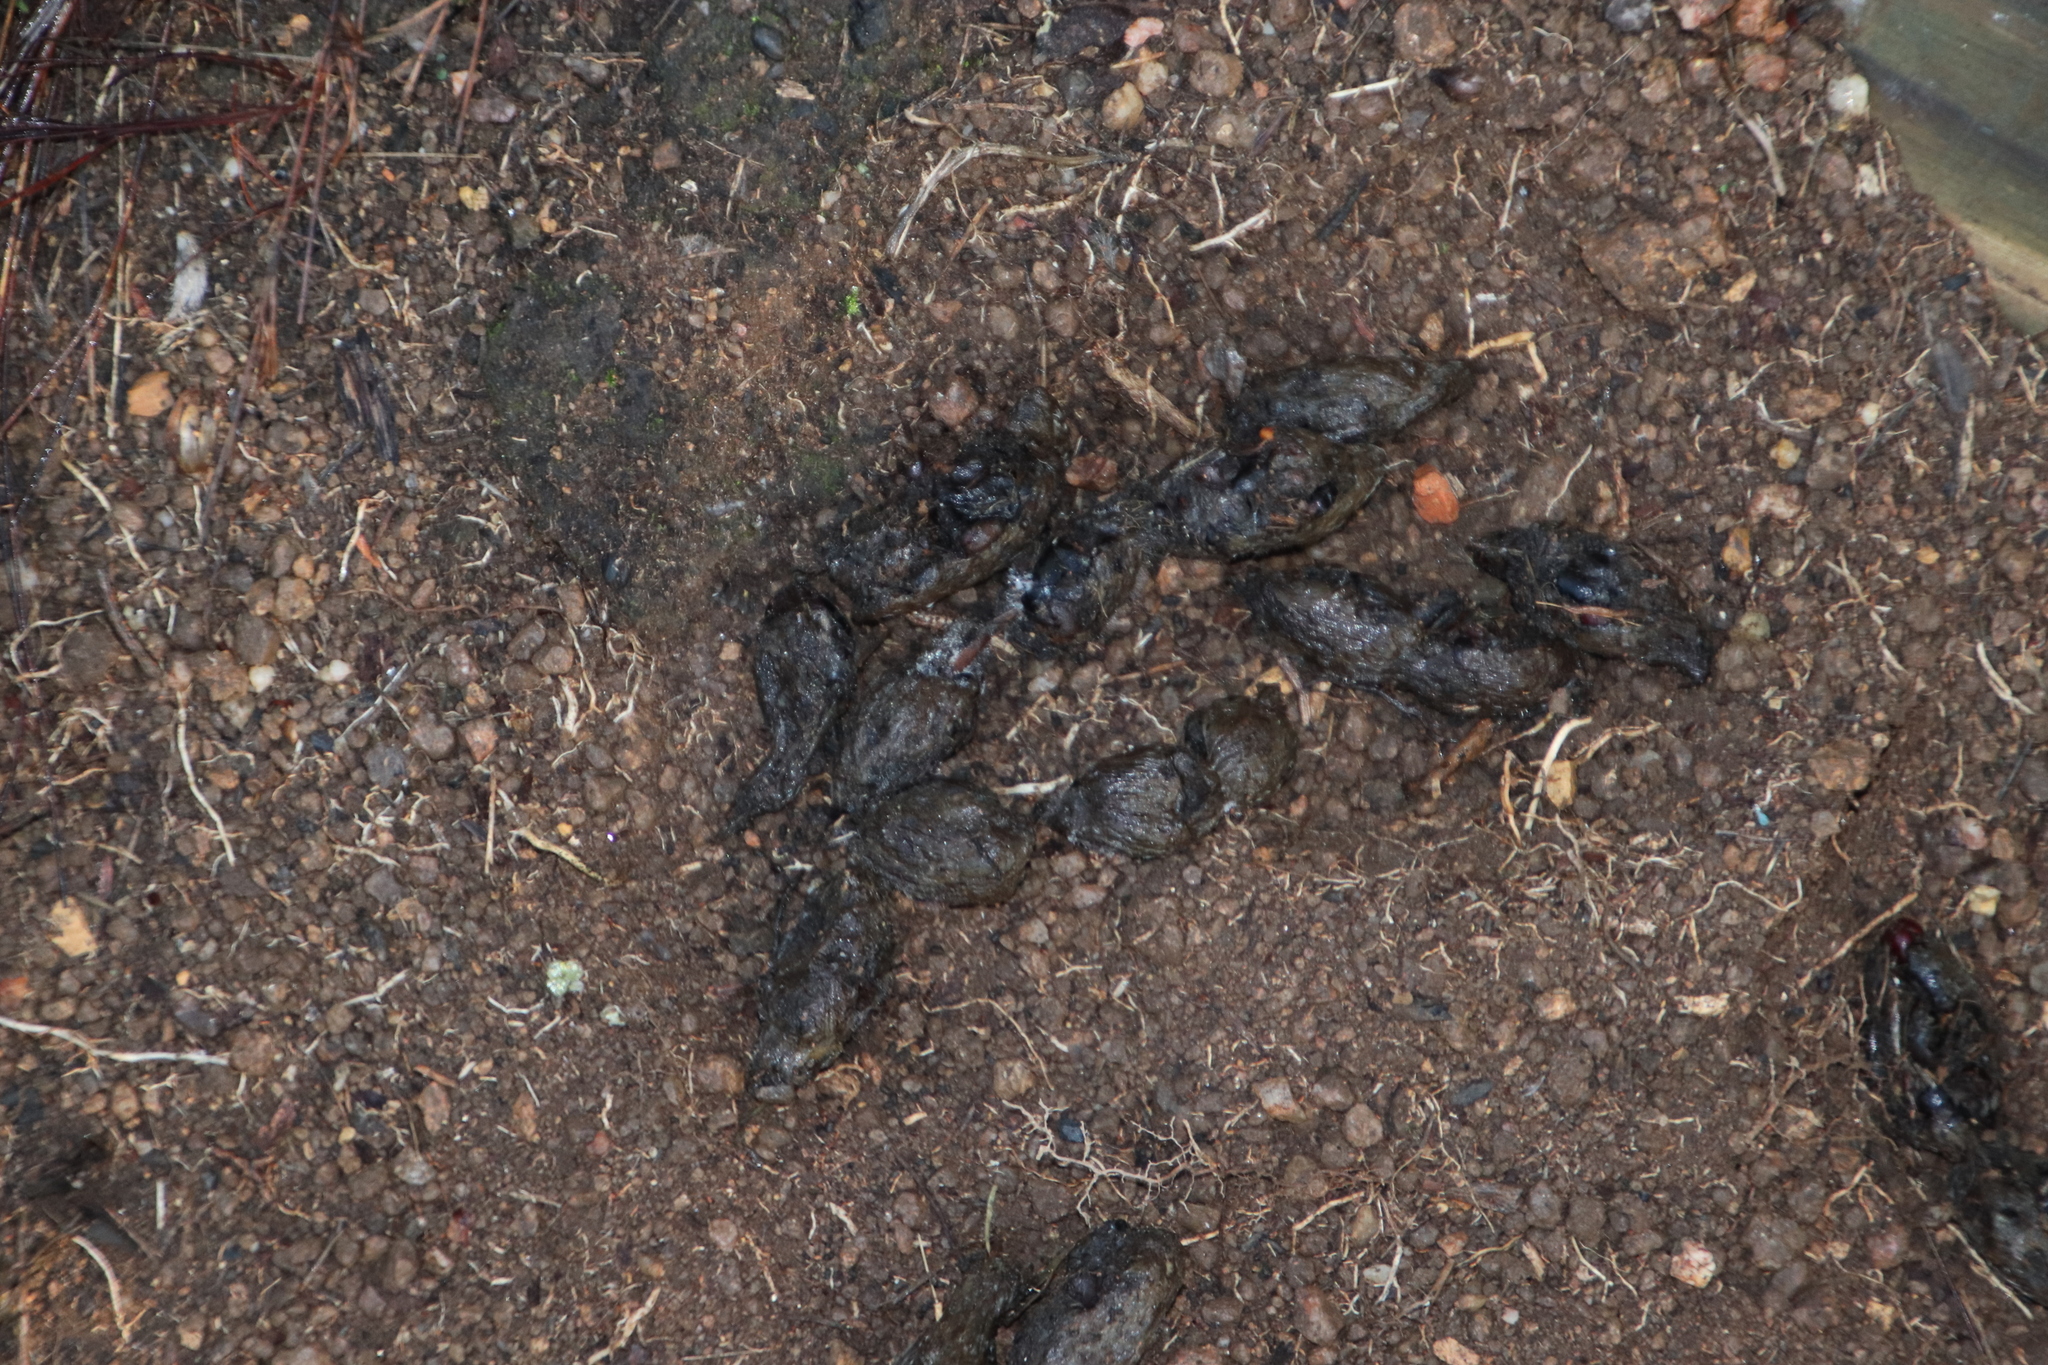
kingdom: Animalia
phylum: Chordata
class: Mammalia
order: Rodentia
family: Hystricidae
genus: Hystrix
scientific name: Hystrix africaeaustralis
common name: Cape porcupine
